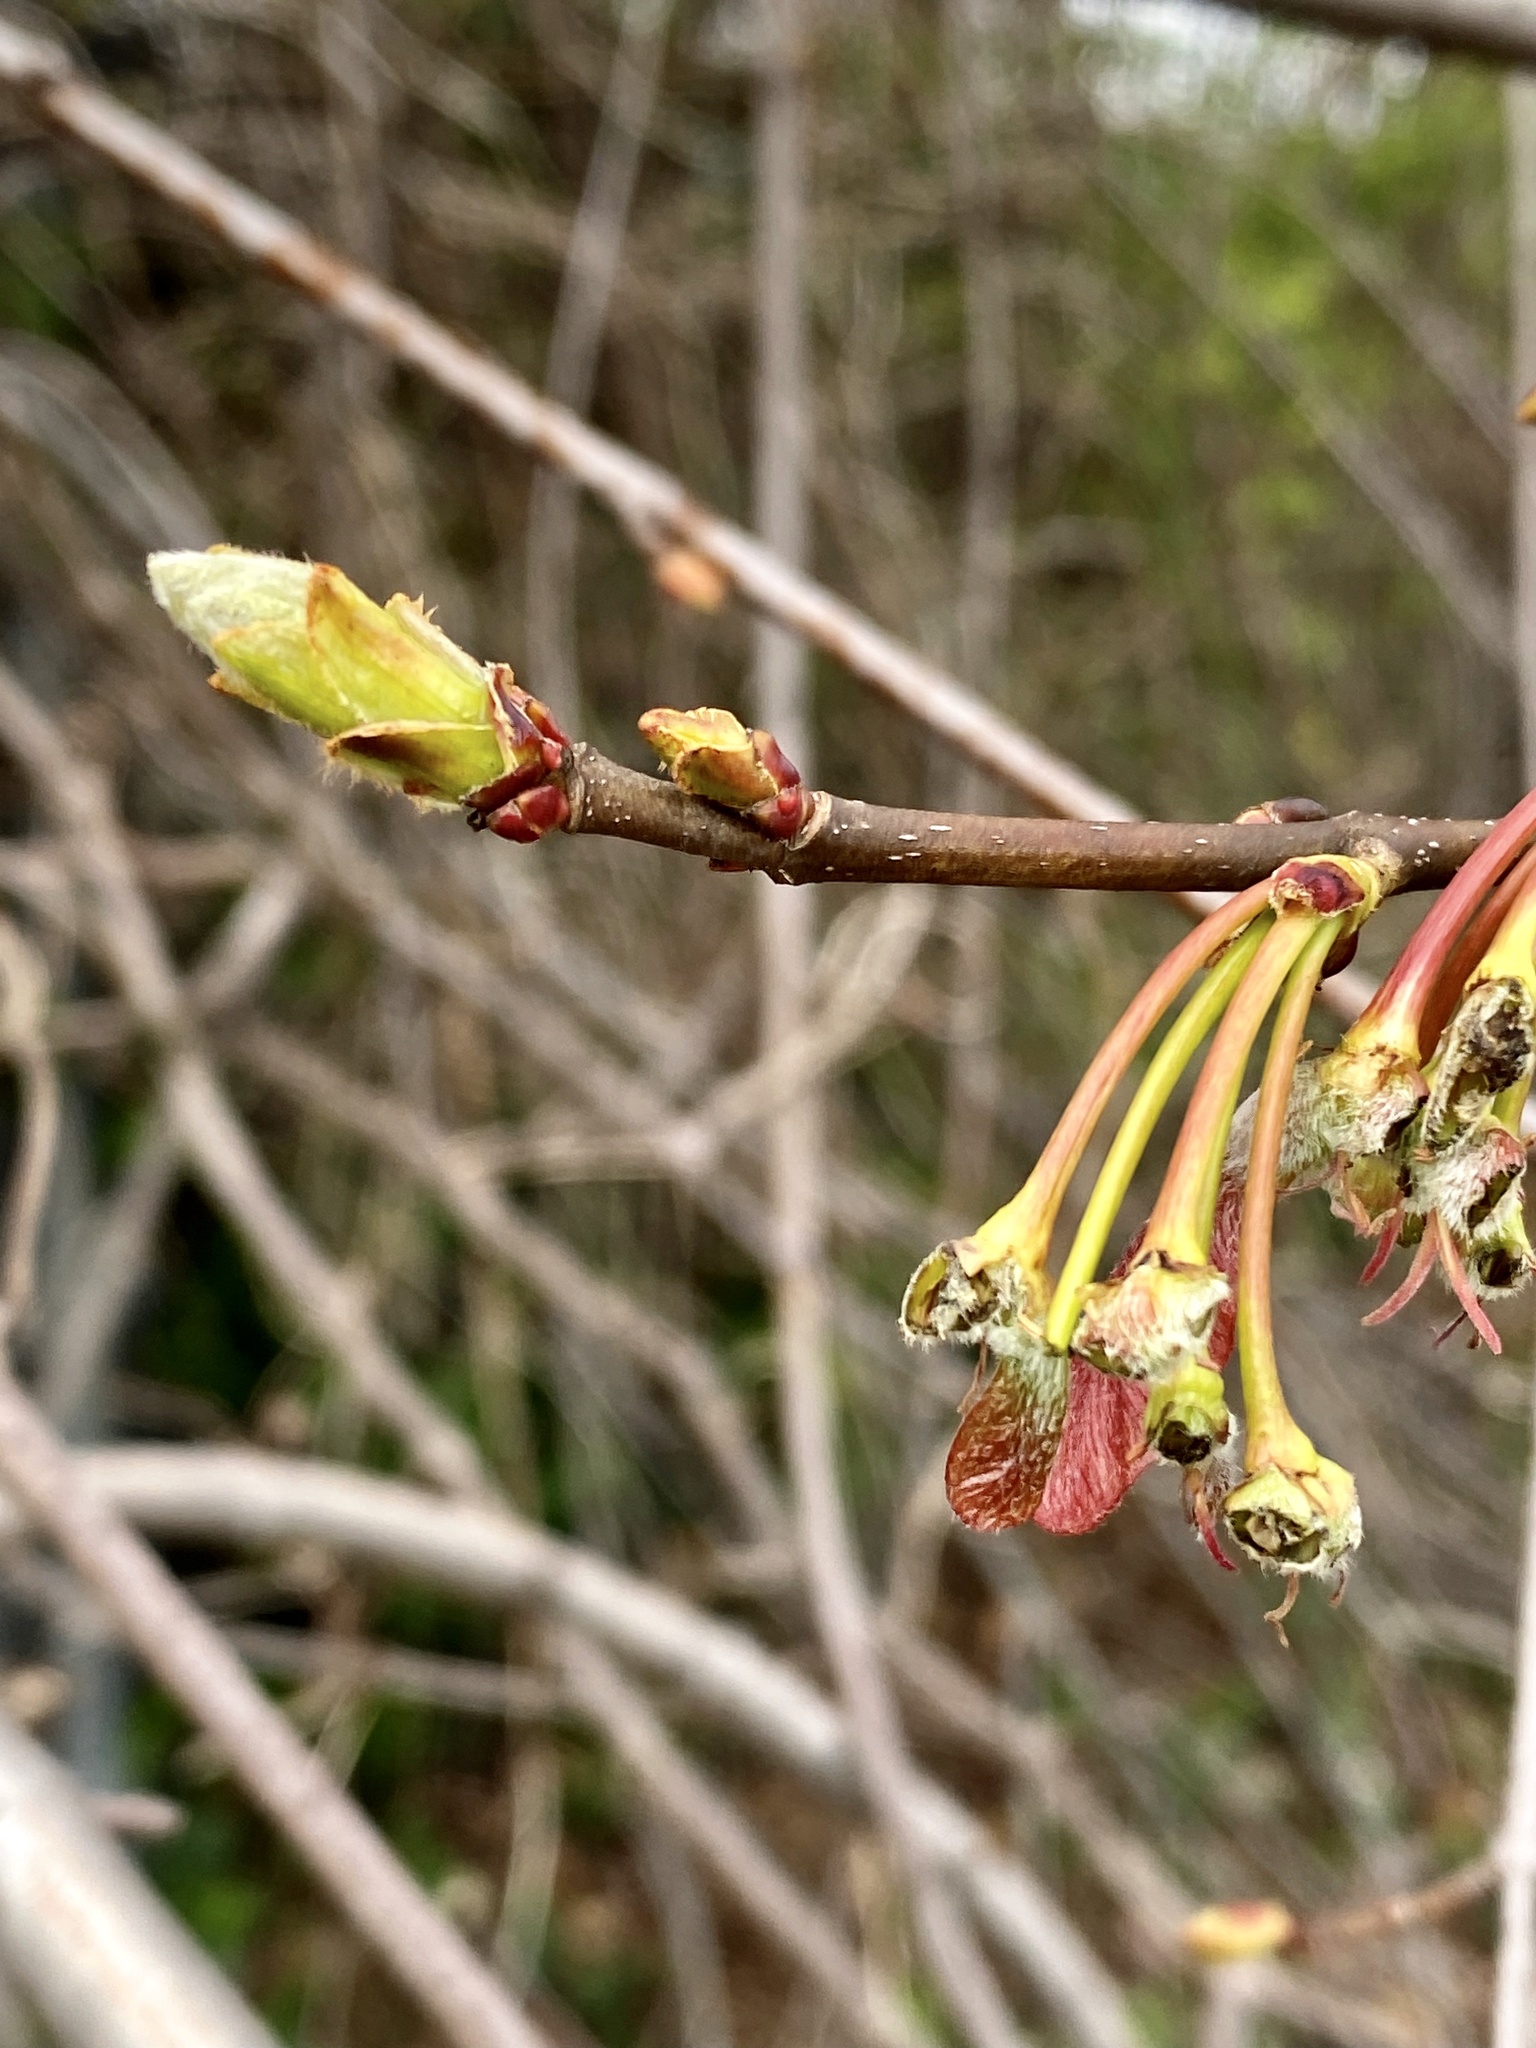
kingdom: Plantae
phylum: Tracheophyta
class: Magnoliopsida
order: Sapindales
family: Sapindaceae
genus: Acer
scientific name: Acer rubrum
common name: Red maple
